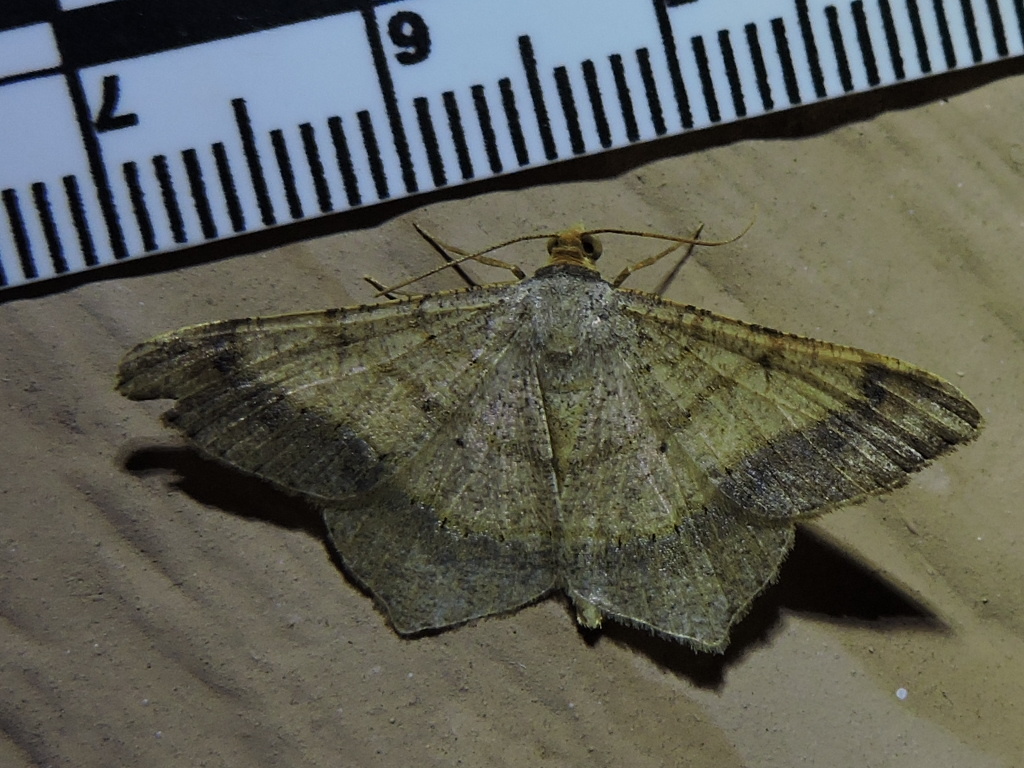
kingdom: Animalia
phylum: Arthropoda
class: Insecta
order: Lepidoptera
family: Geometridae
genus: Macaria
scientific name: Macaria abydata
